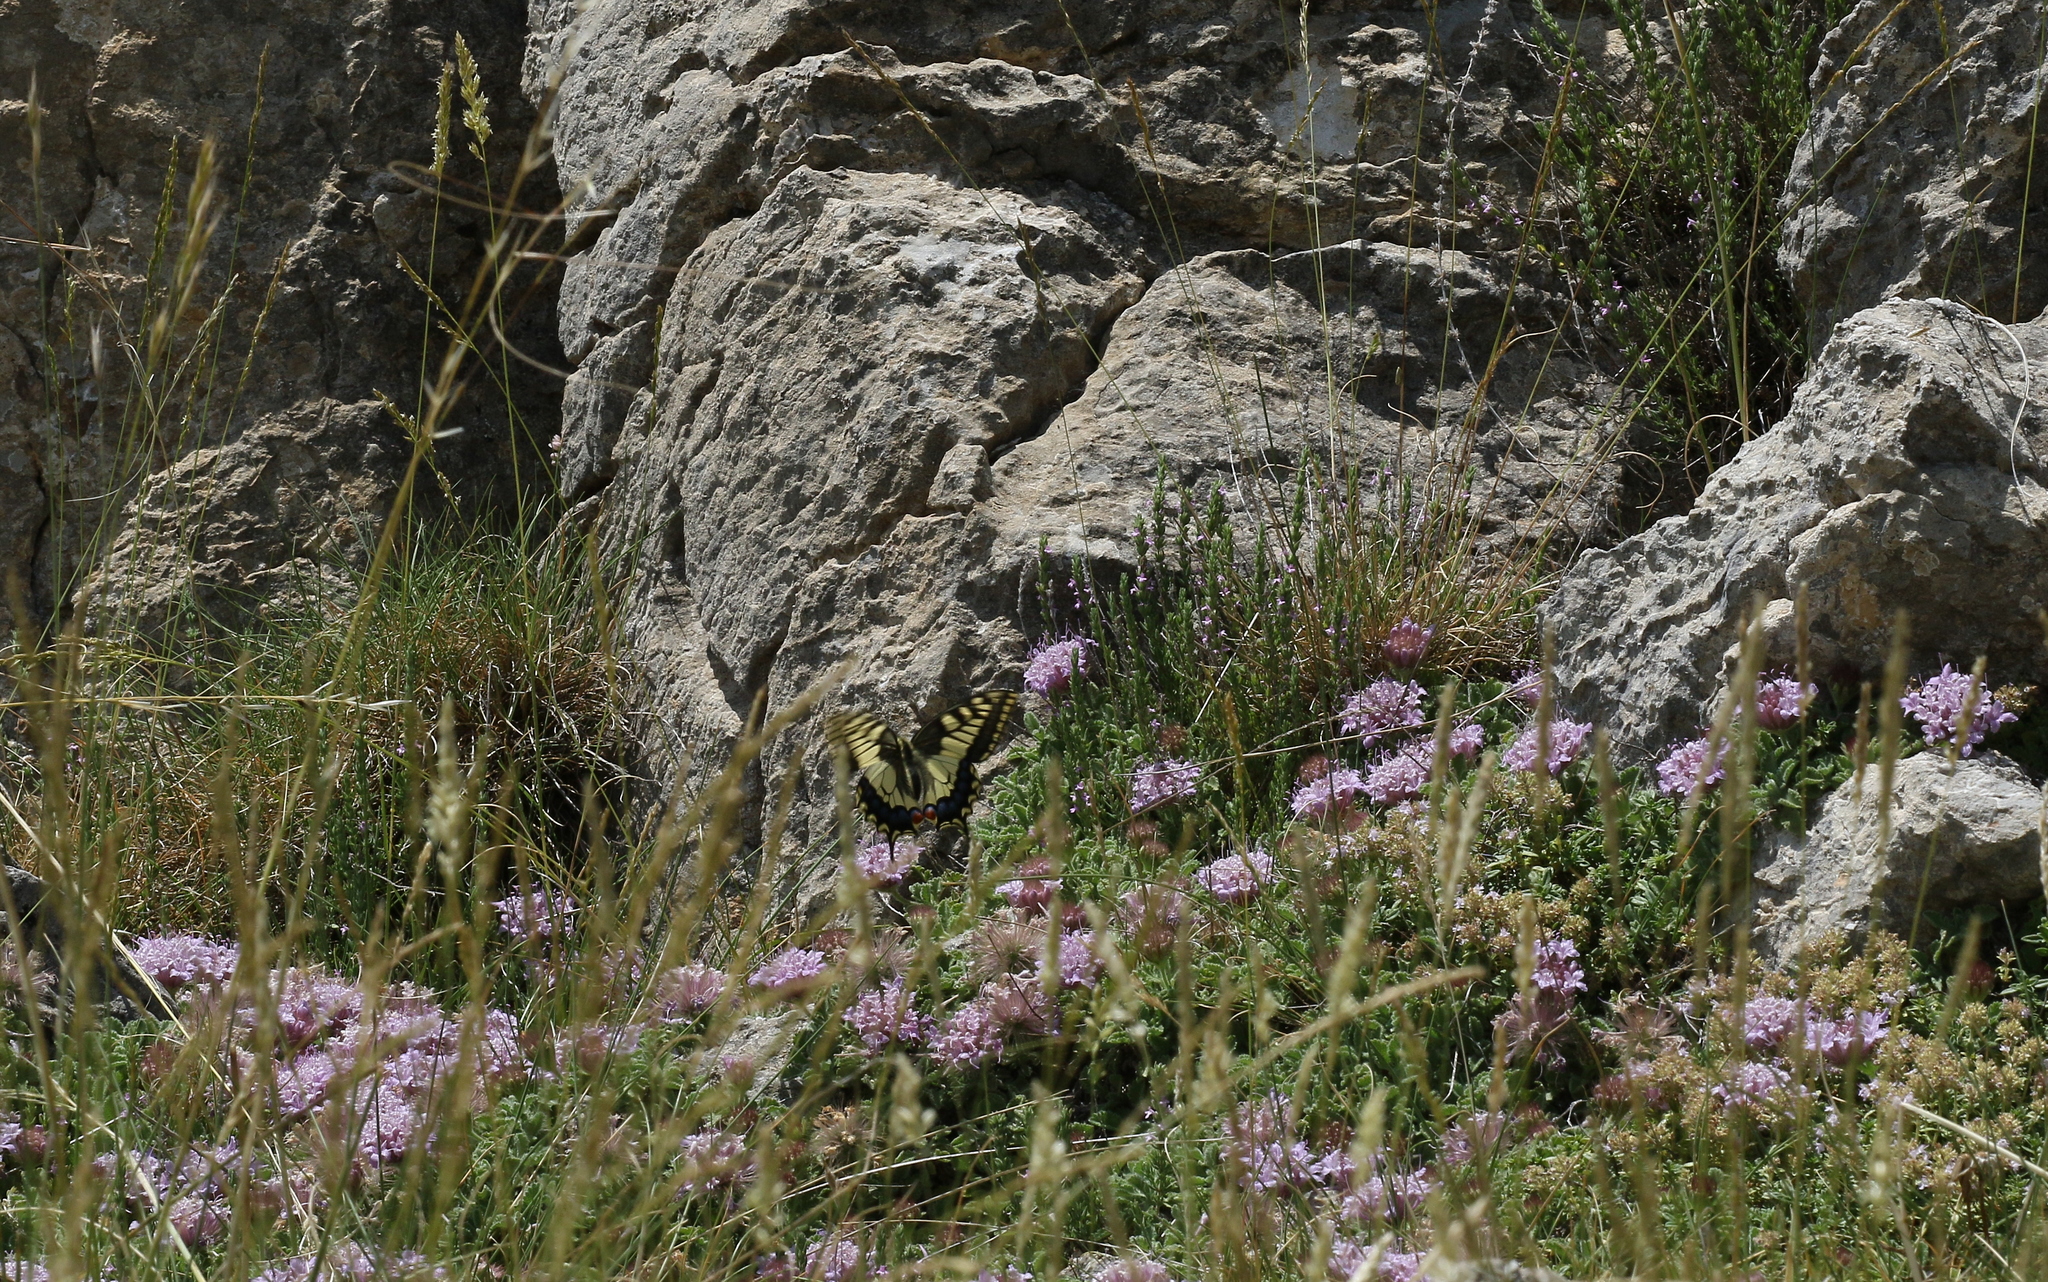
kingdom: Animalia
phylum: Arthropoda
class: Insecta
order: Lepidoptera
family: Papilionidae
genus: Papilio
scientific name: Papilio machaon
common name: Swallowtail
